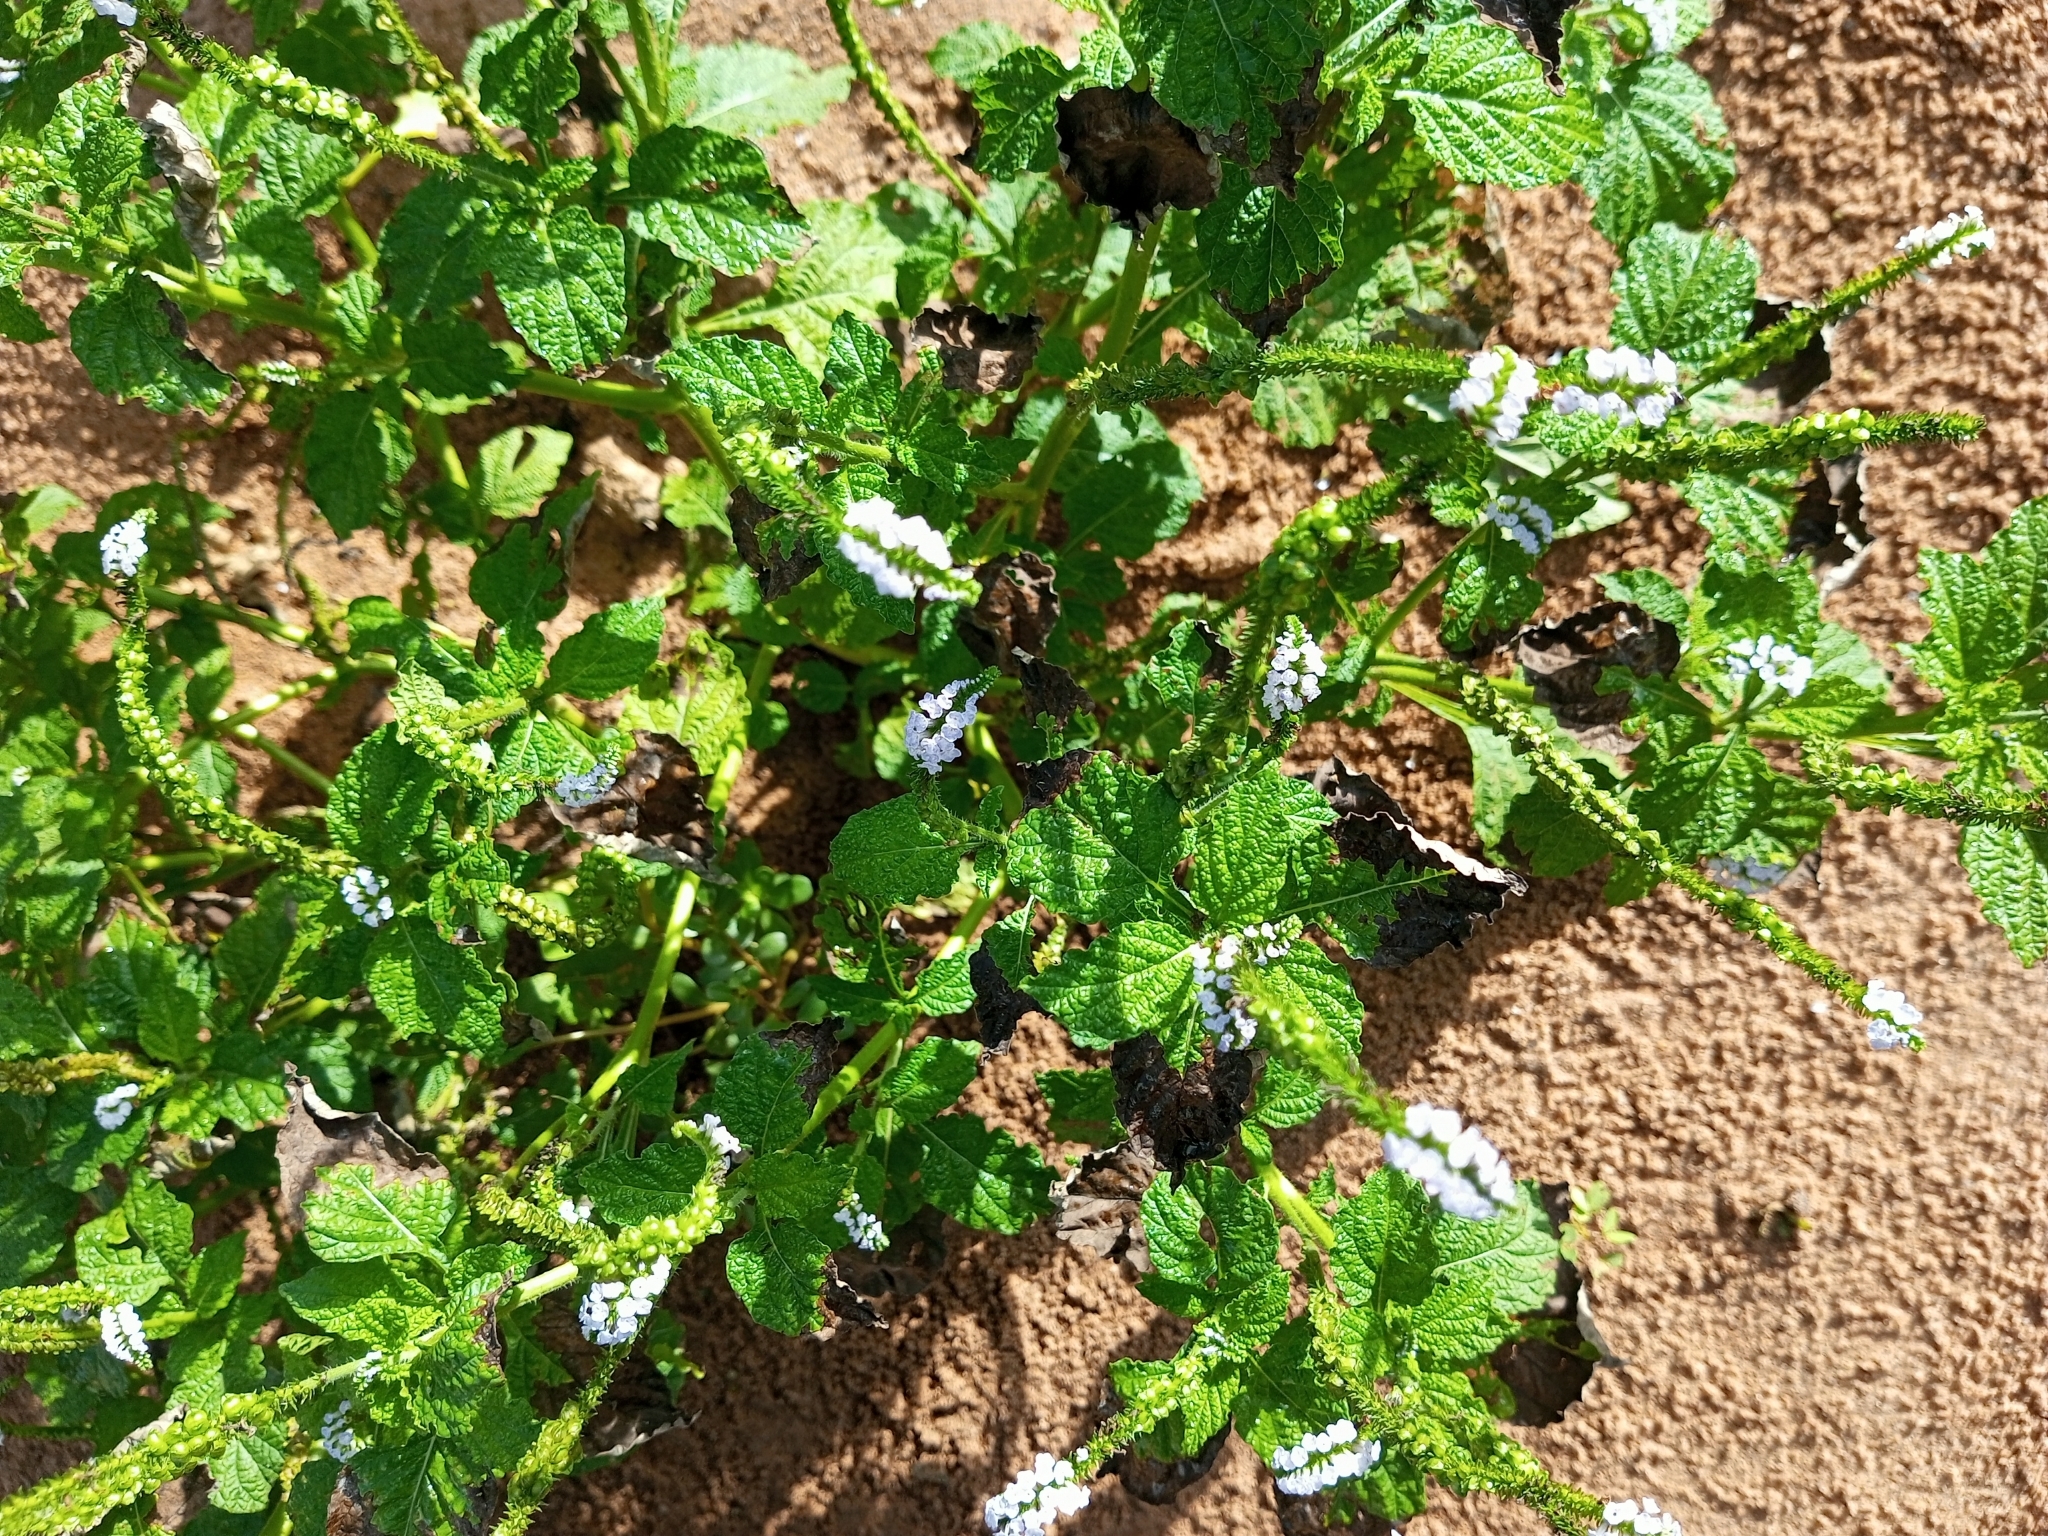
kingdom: Plantae
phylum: Tracheophyta
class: Magnoliopsida
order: Boraginales
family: Heliotropiaceae
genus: Heliotropium
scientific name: Heliotropium indicum
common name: Indian heliotrope
